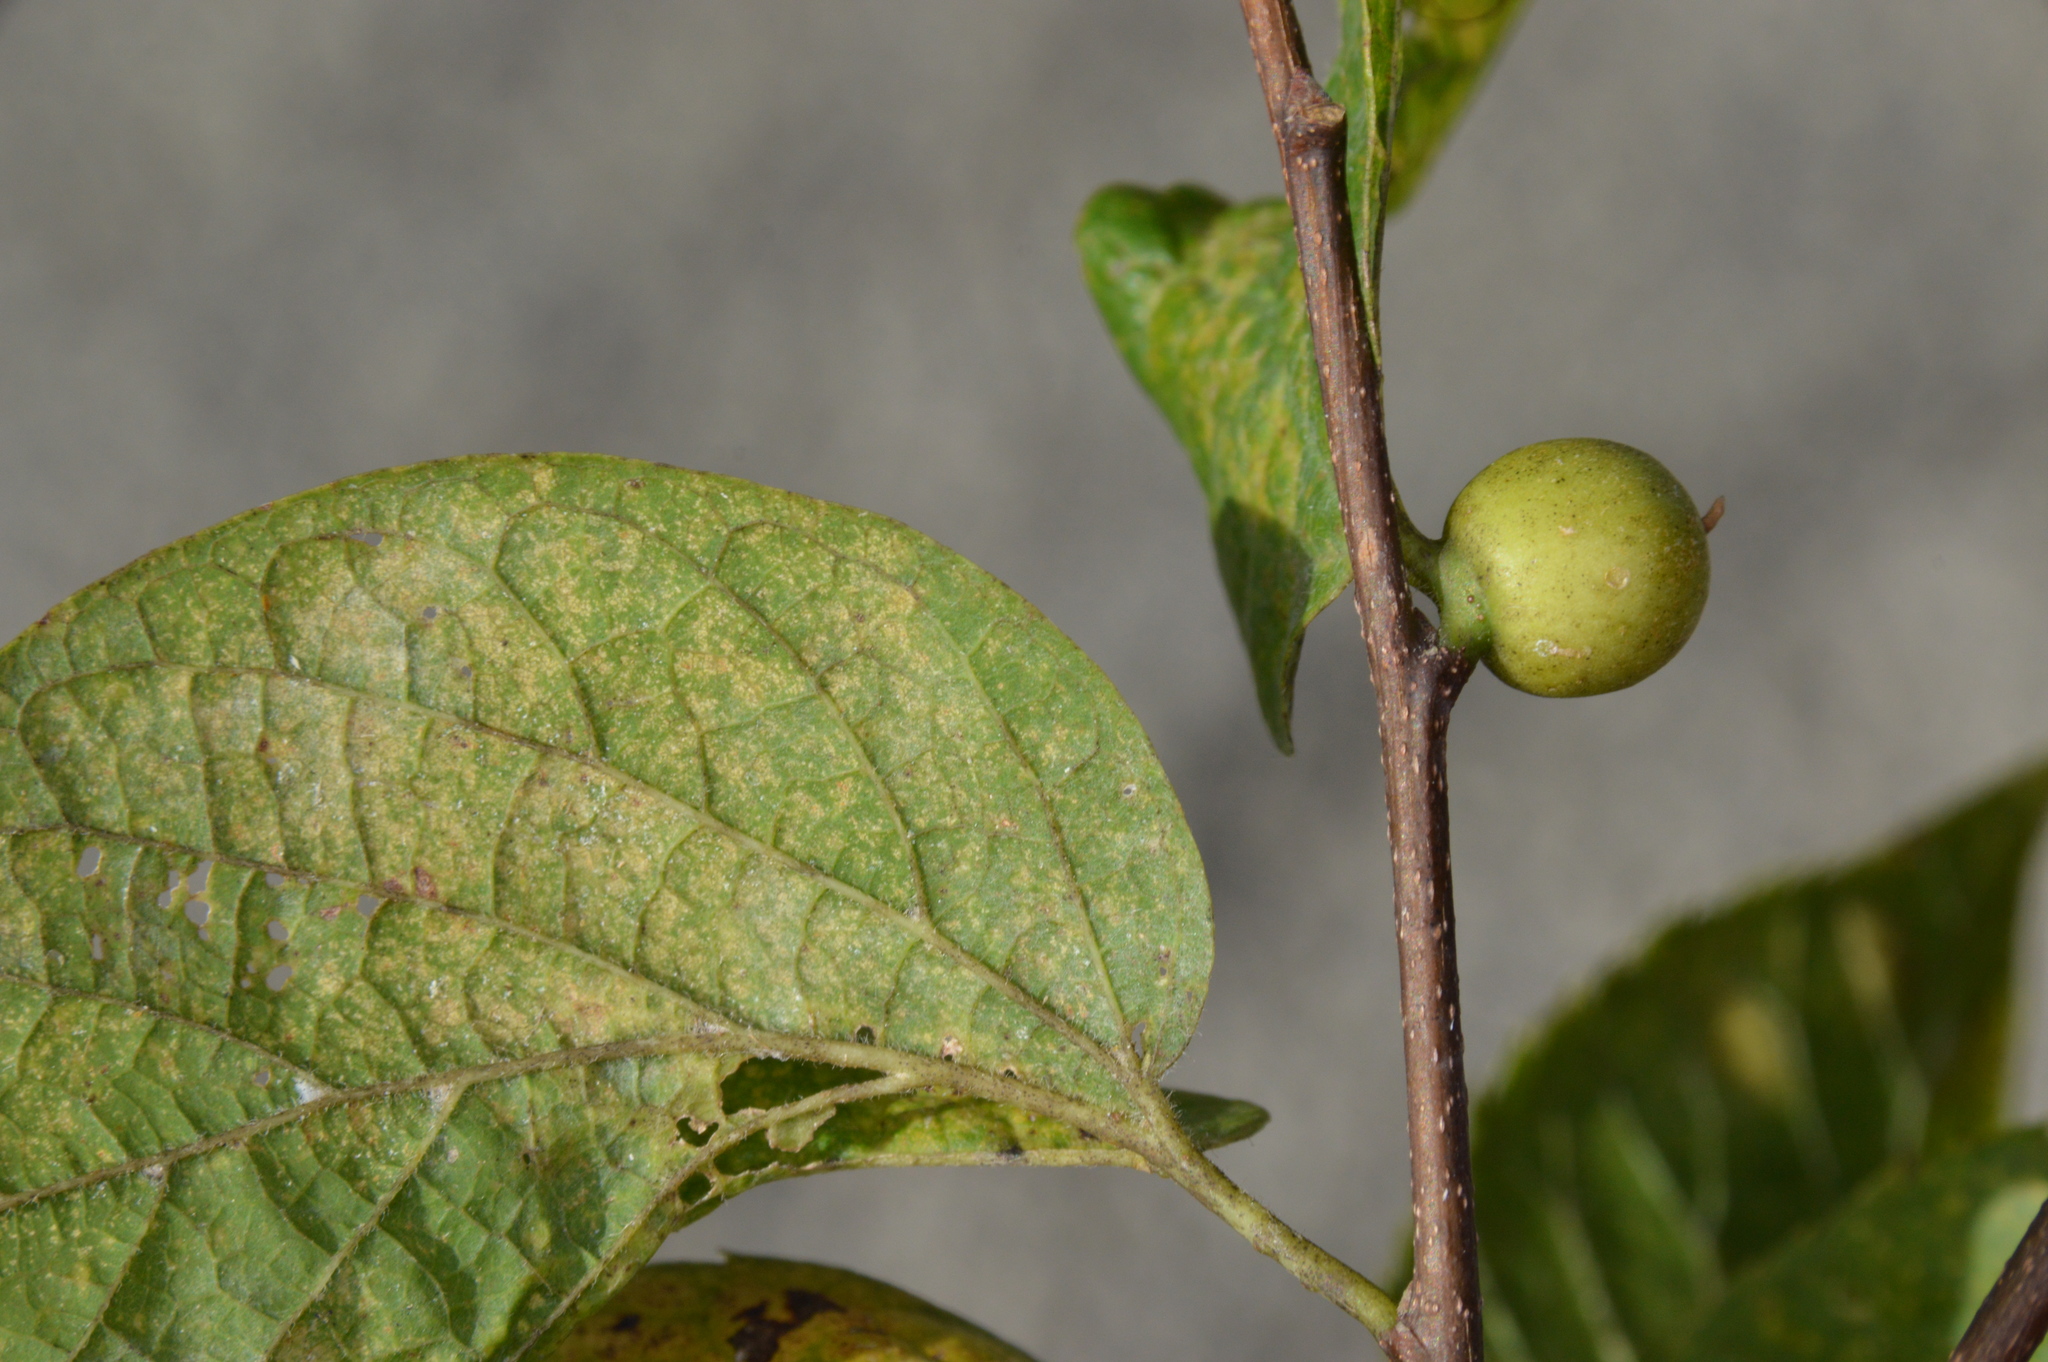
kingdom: Animalia
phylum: Arthropoda
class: Insecta
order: Diptera
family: Cecidomyiidae
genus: Celticecis
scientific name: Celticecis connata
